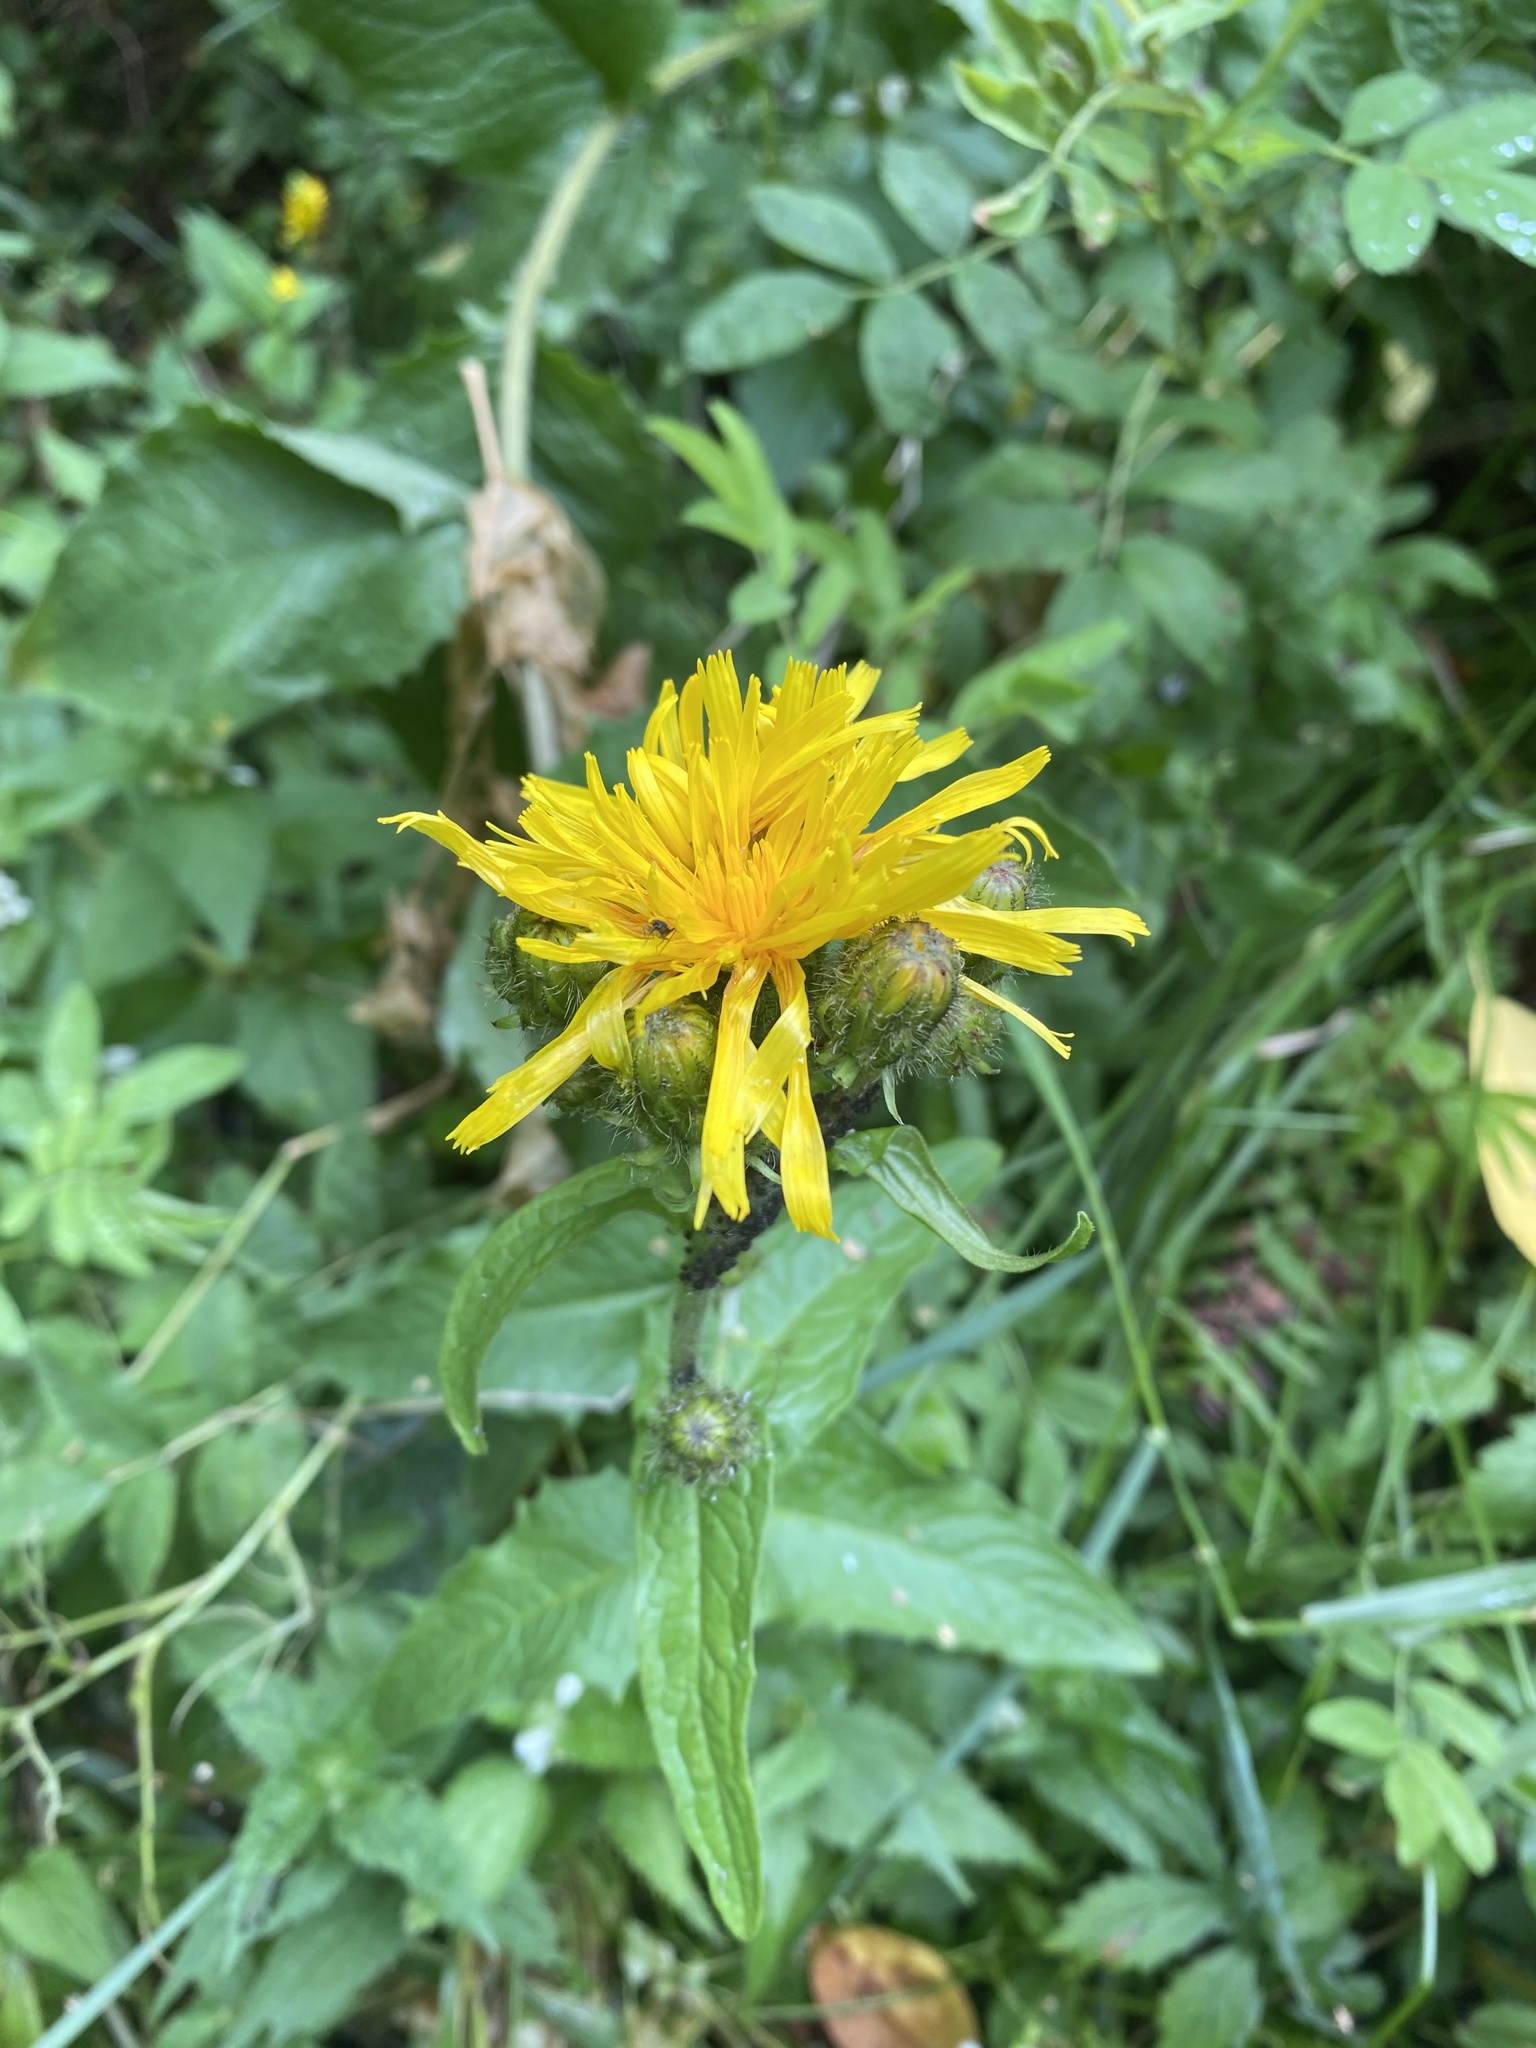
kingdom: Plantae
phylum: Tracheophyta
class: Magnoliopsida
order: Asterales
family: Asteraceae
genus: Crepis
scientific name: Crepis sibirica
